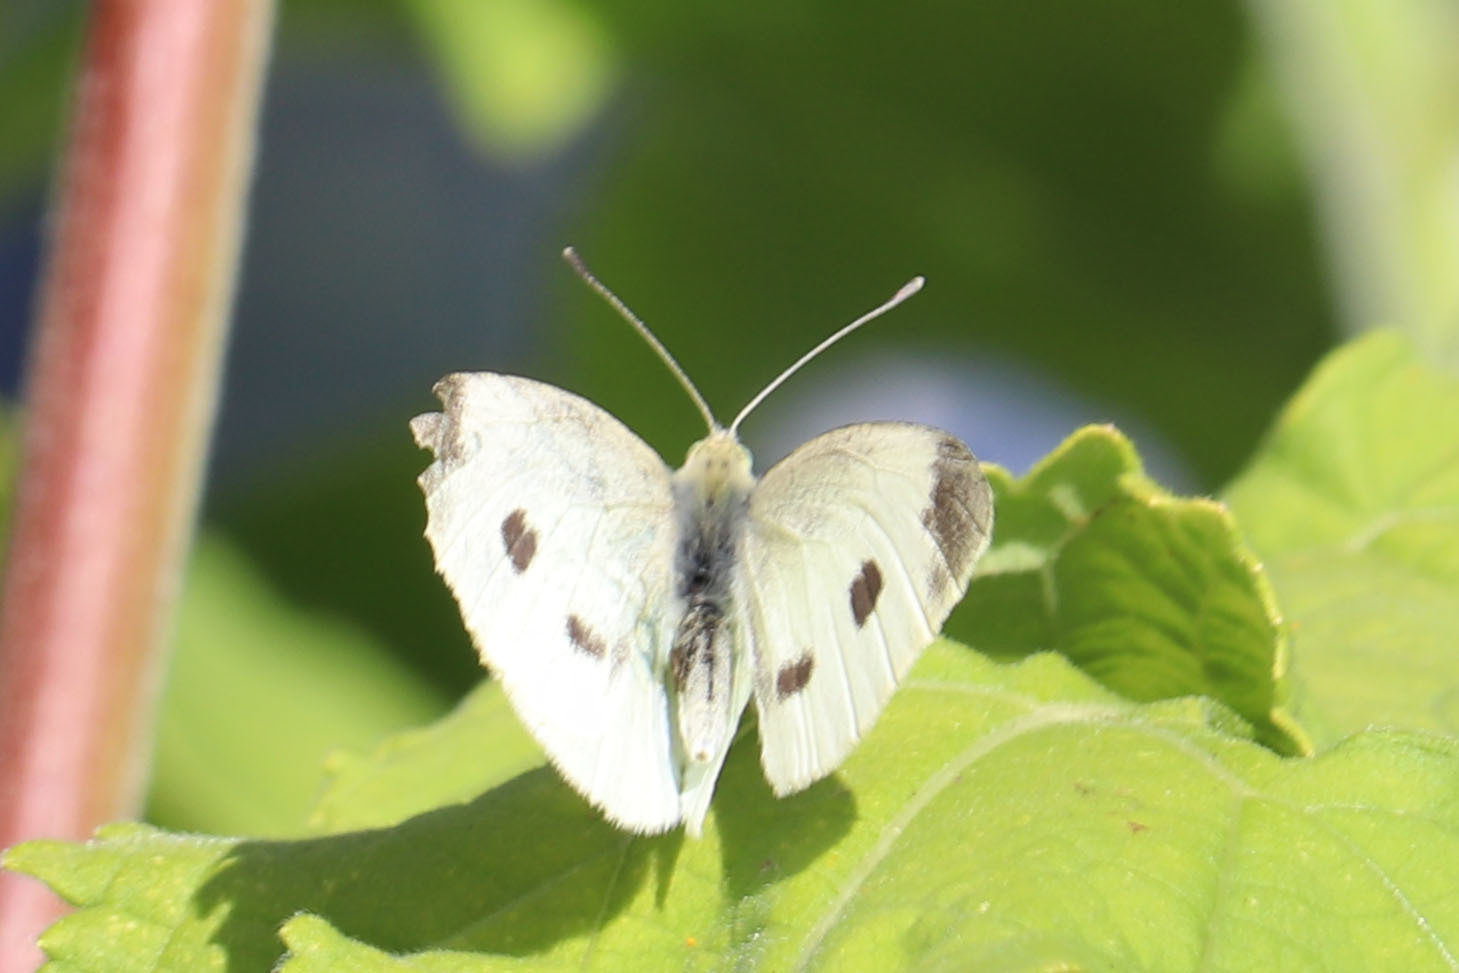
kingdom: Animalia
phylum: Arthropoda
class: Insecta
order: Lepidoptera
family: Pieridae
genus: Pieris
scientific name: Pieris rapae
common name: Small white
